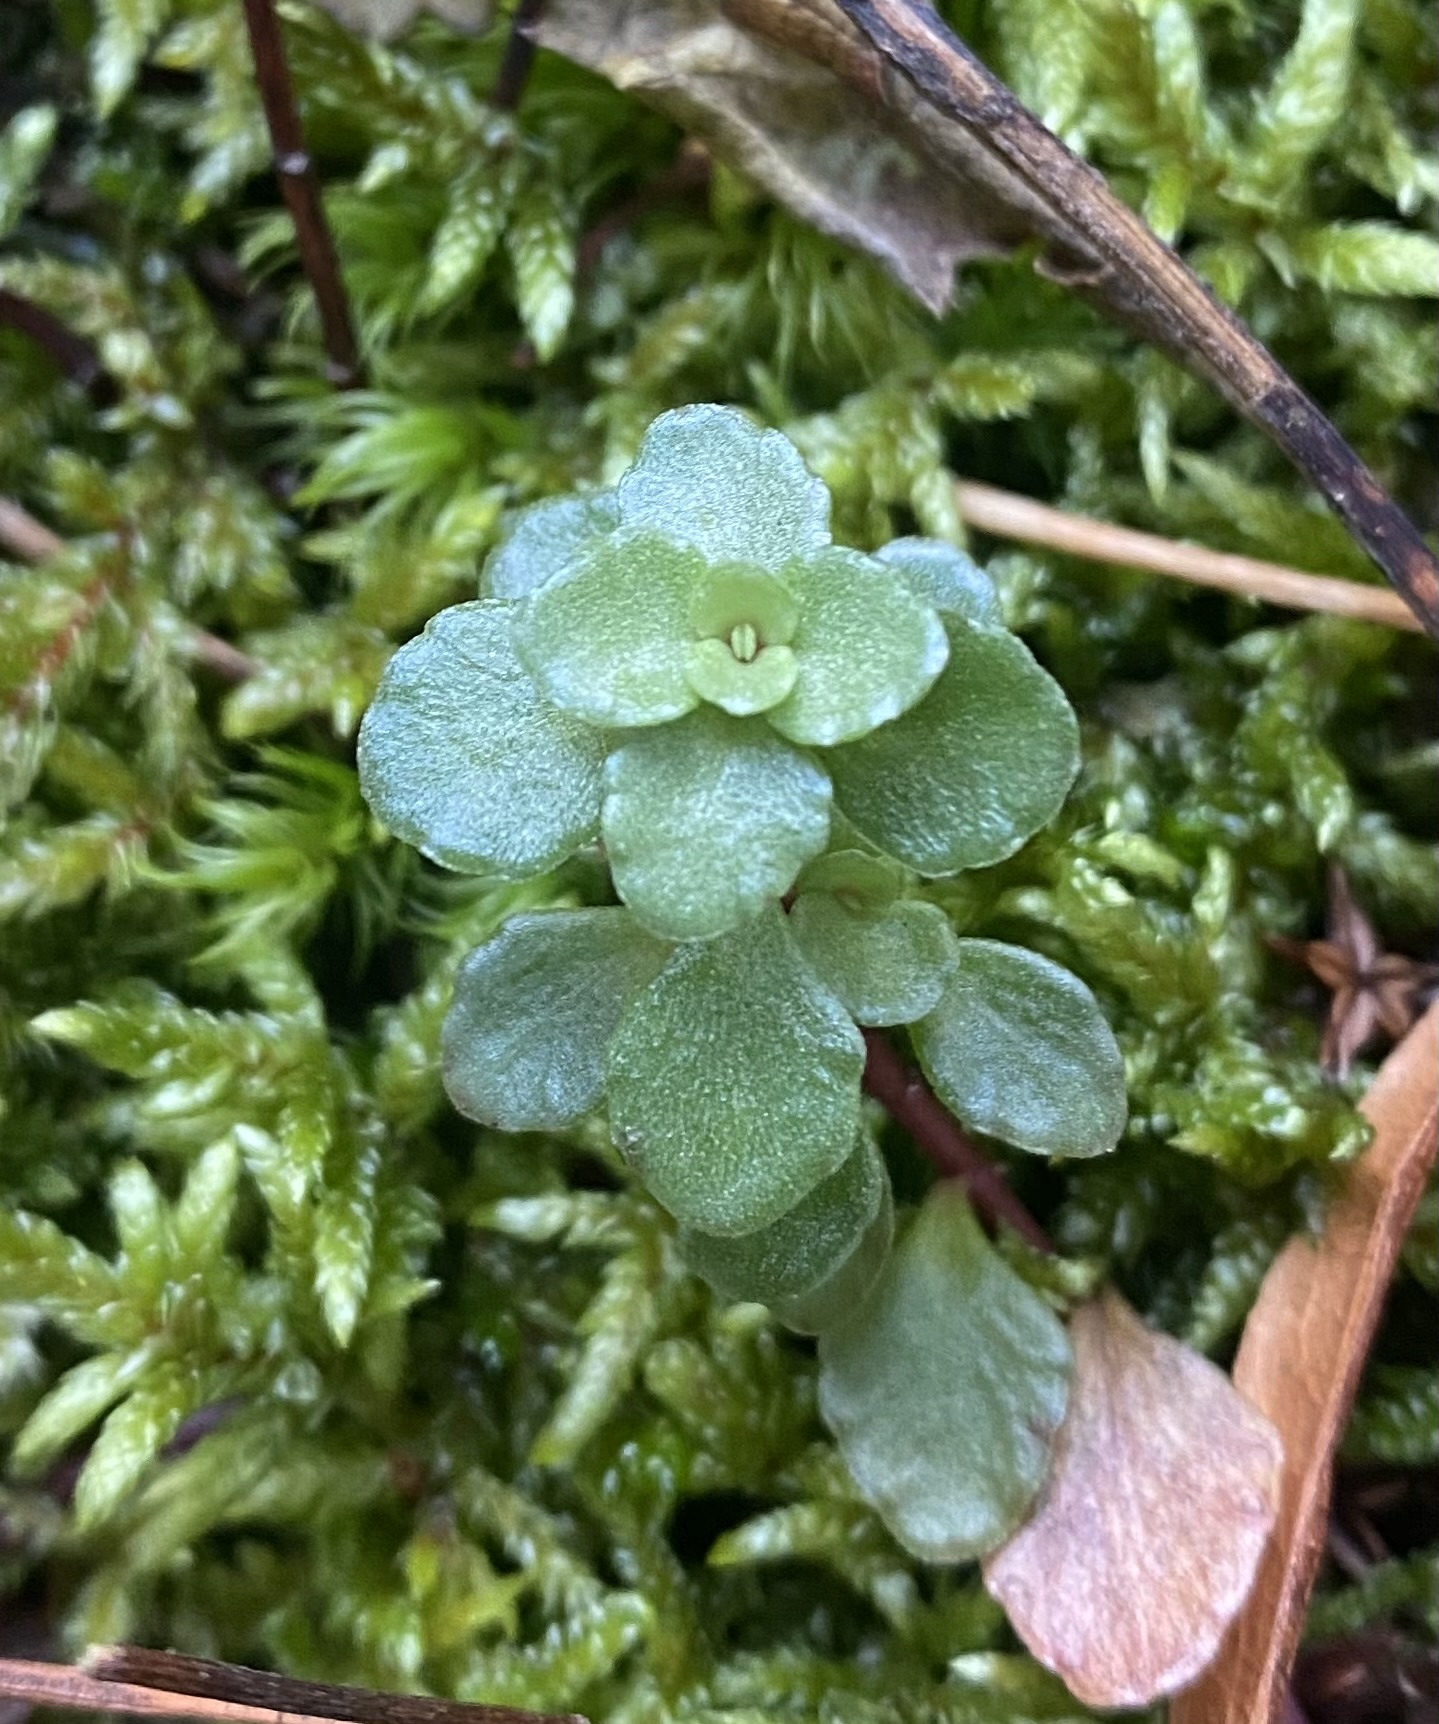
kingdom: Plantae
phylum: Tracheophyta
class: Magnoliopsida
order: Saxifragales
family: Crassulaceae
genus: Phedimus
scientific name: Phedimus stolonifer
